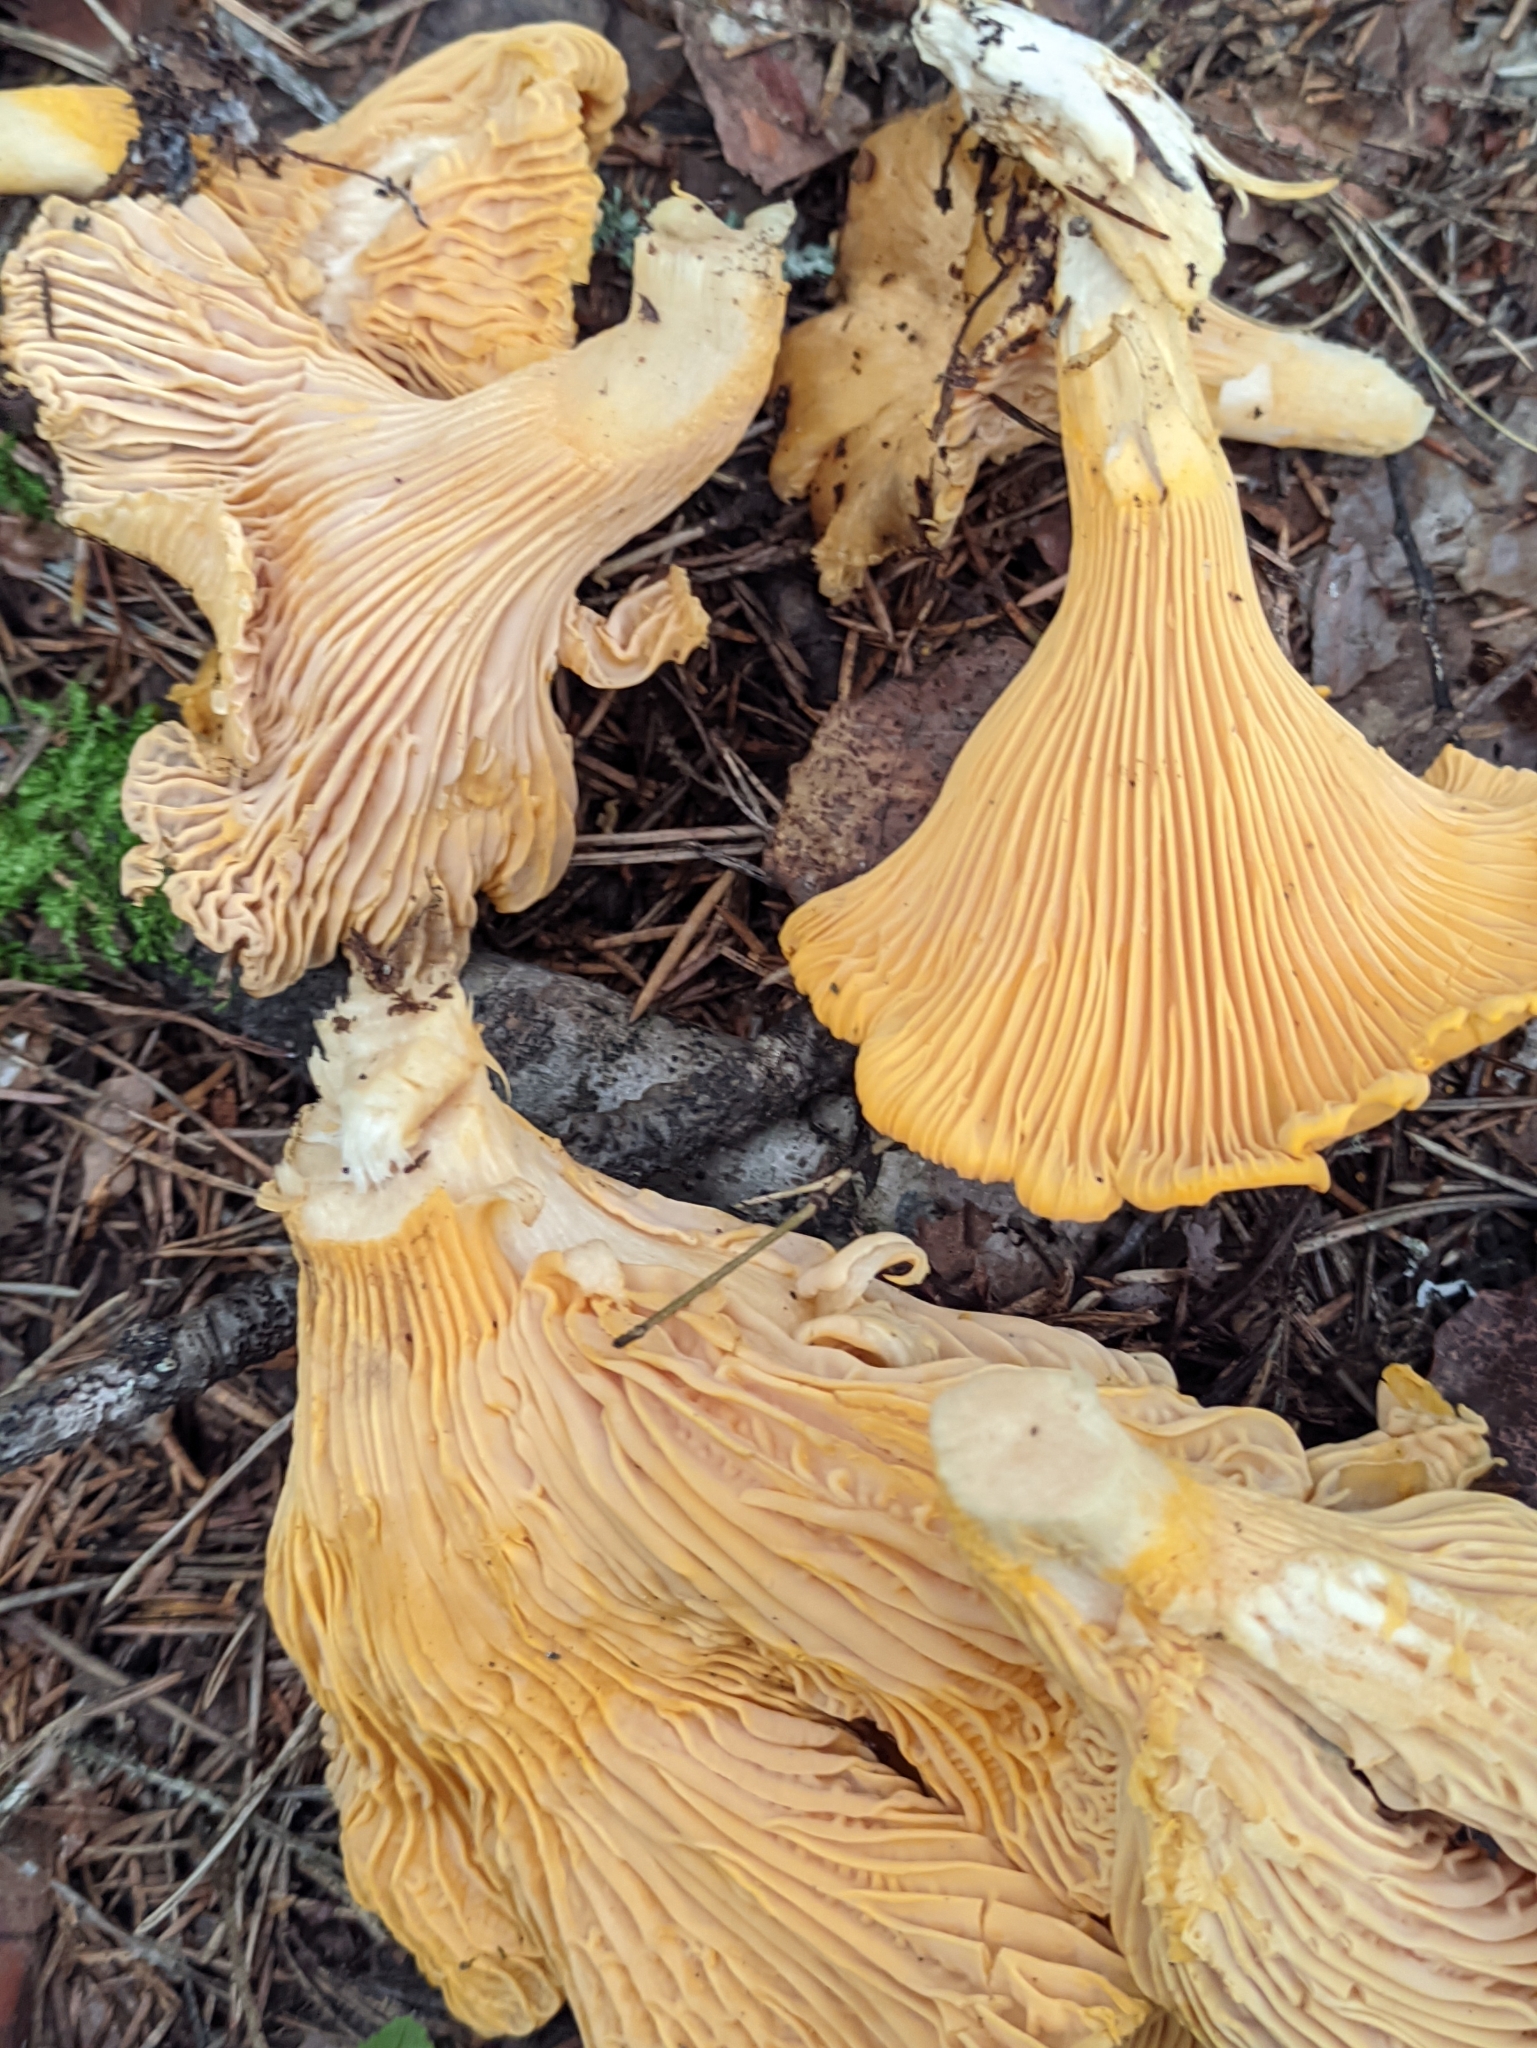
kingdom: Fungi
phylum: Basidiomycota
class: Agaricomycetes
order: Cantharellales
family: Hydnaceae
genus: Cantharellus
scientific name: Cantharellus cibarius
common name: Chanterelle
